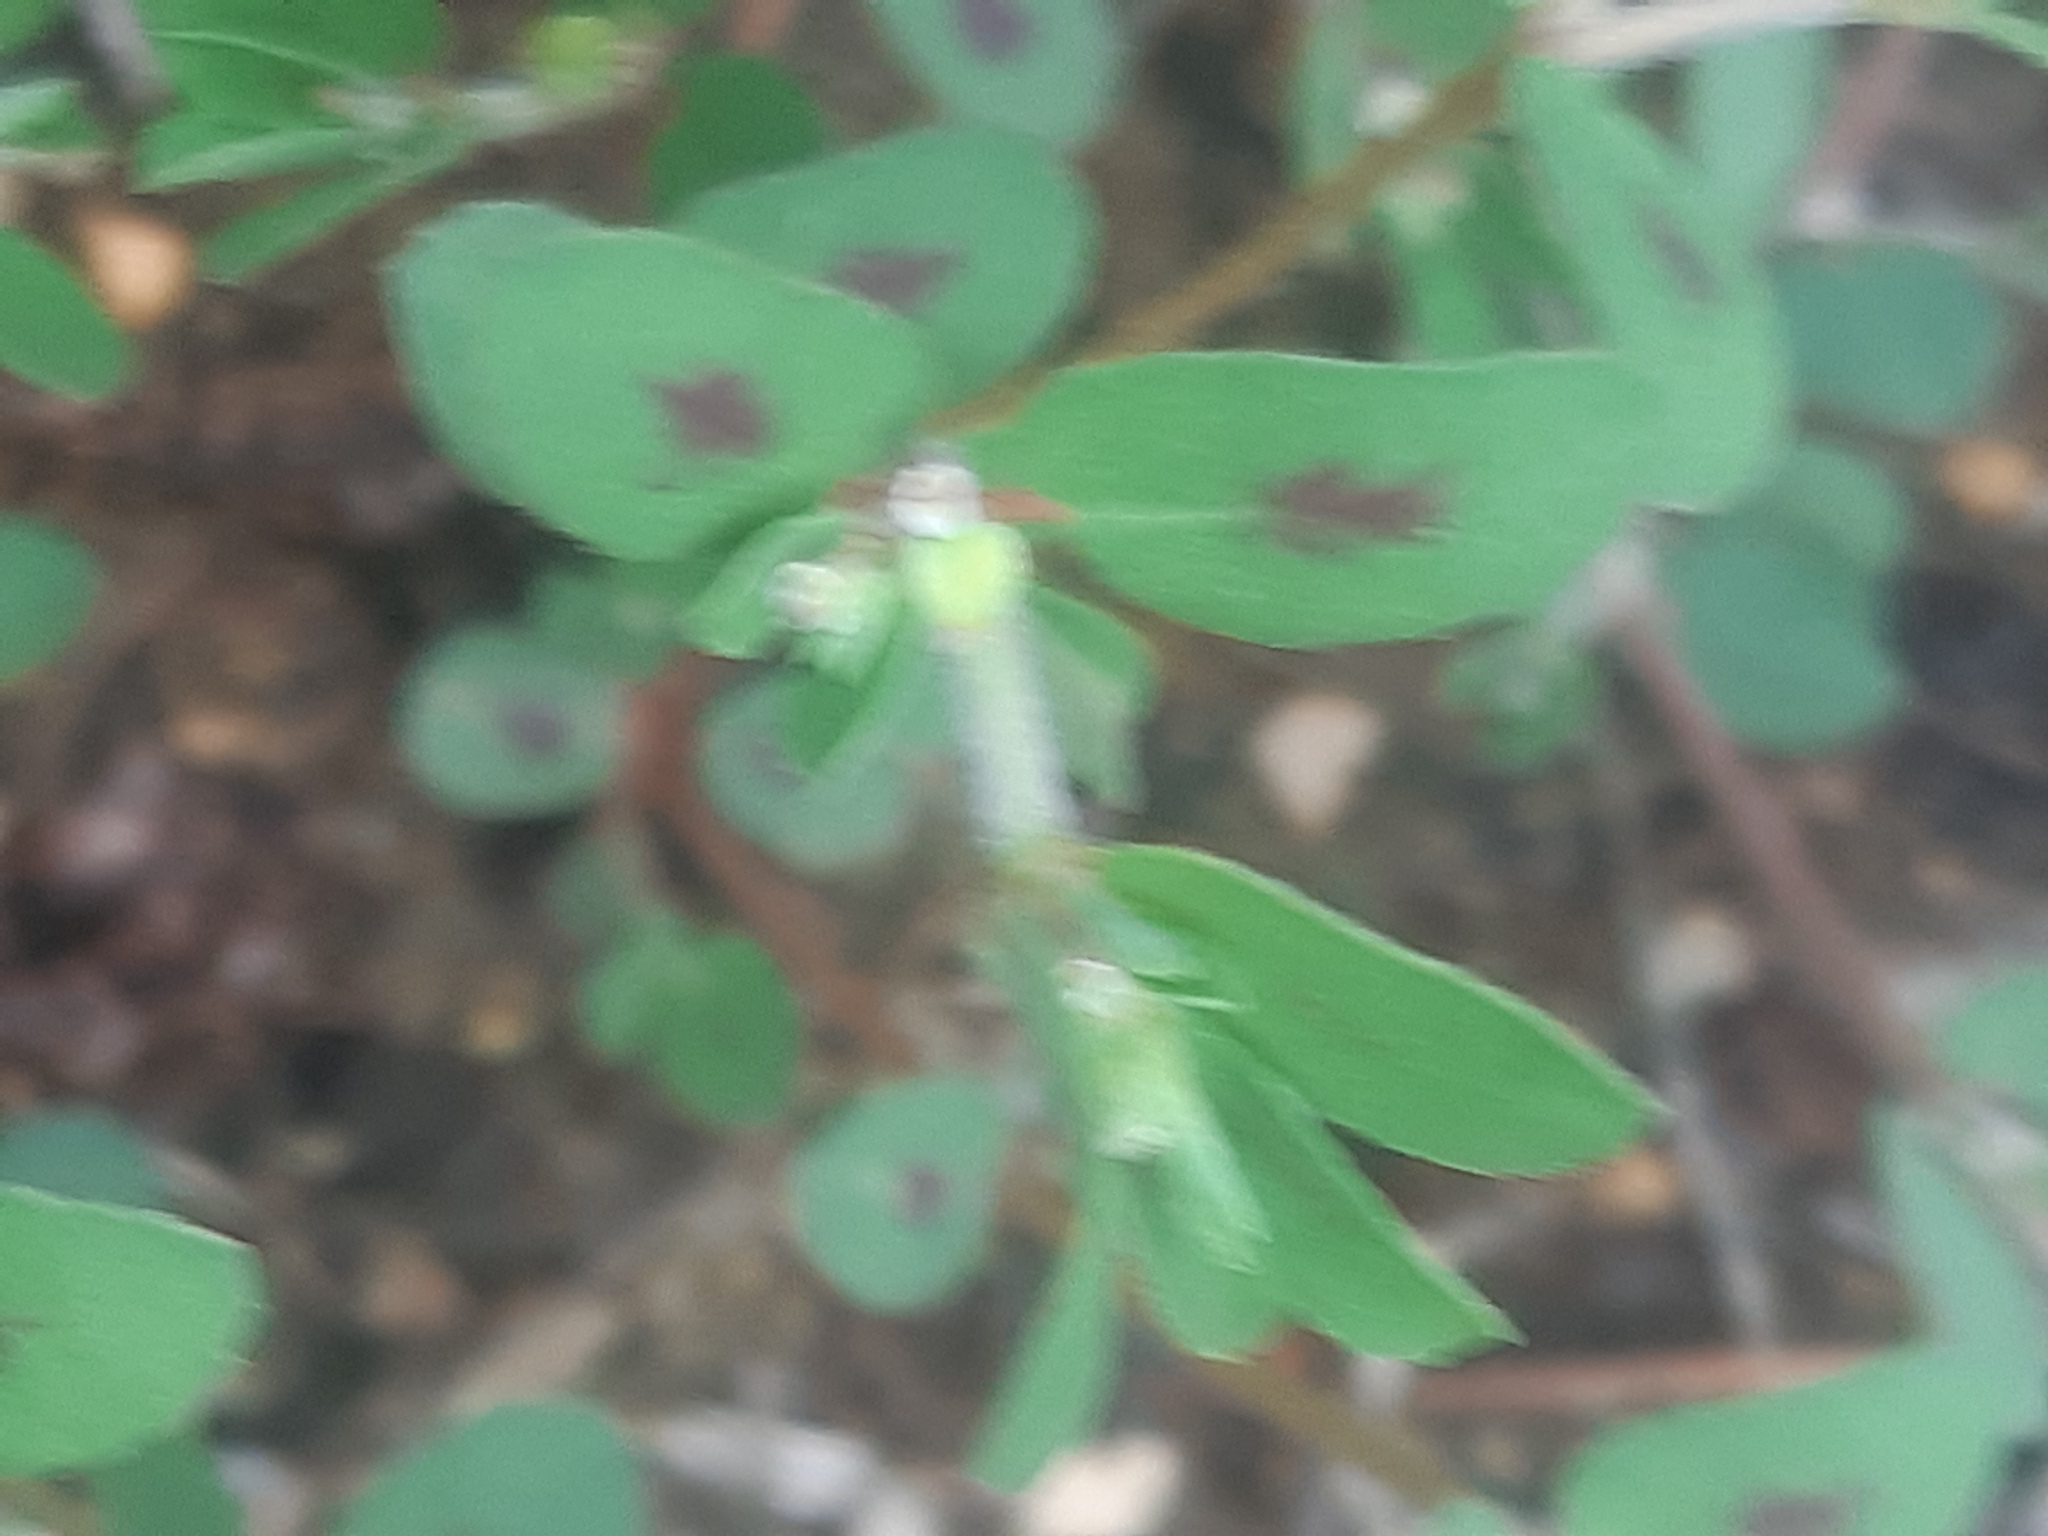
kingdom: Plantae
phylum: Tracheophyta
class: Magnoliopsida
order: Malpighiales
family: Euphorbiaceae
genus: Euphorbia
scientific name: Euphorbia maculata
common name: Spotted spurge
